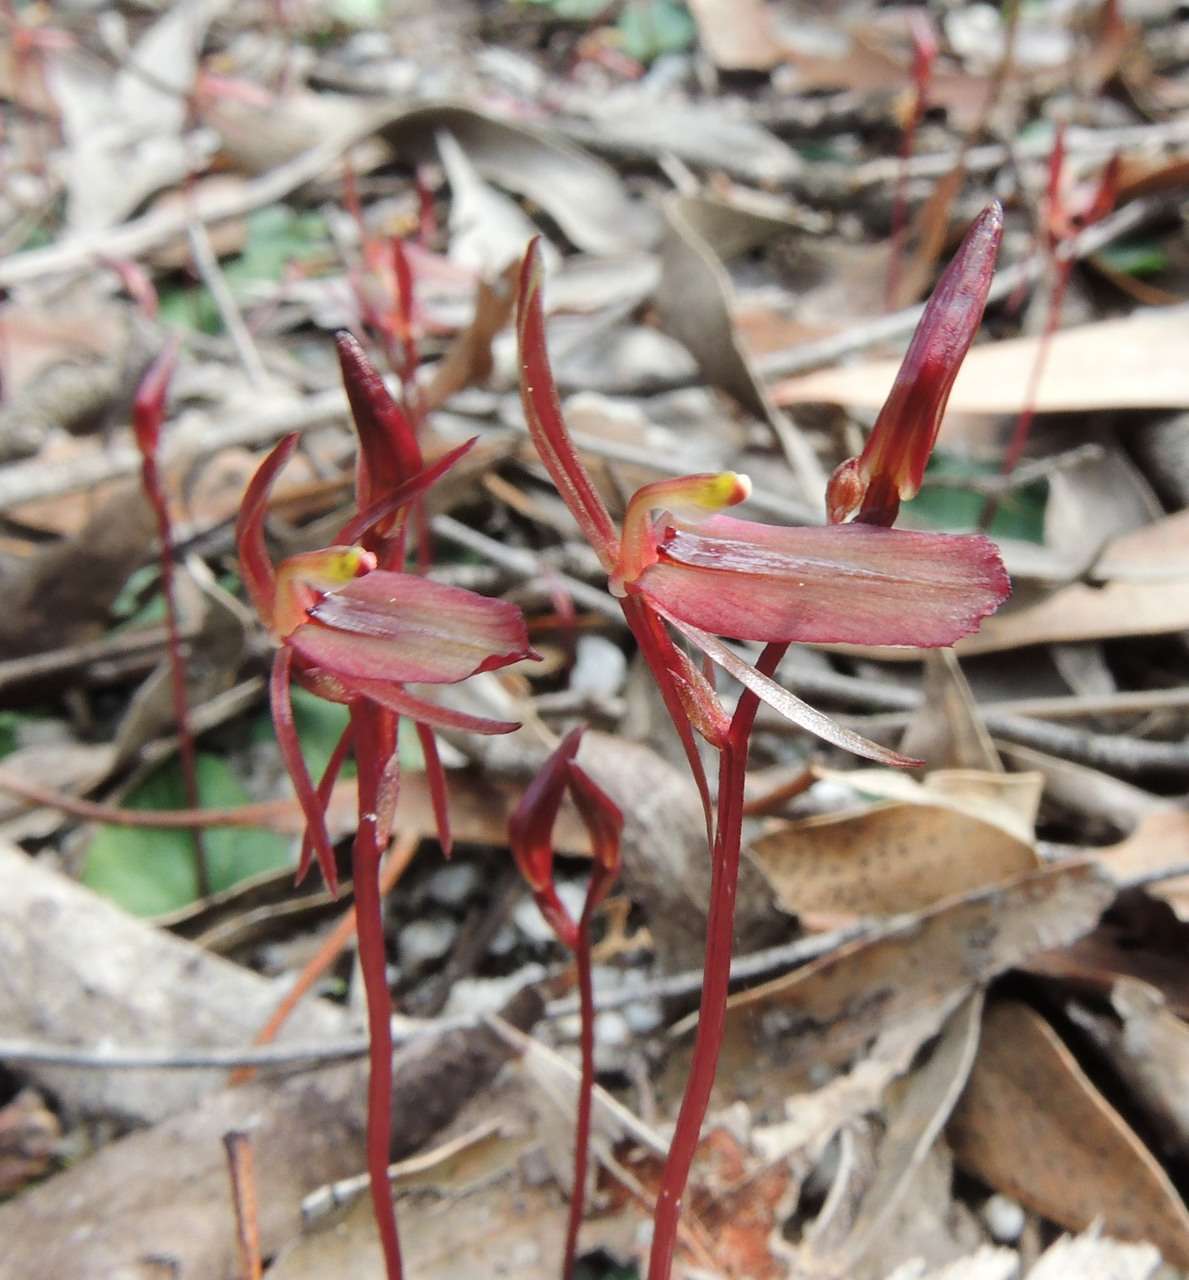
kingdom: Plantae
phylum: Tracheophyta
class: Liliopsida
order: Asparagales
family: Orchidaceae
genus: Cyrtostylis
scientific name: Cyrtostylis reniformis
